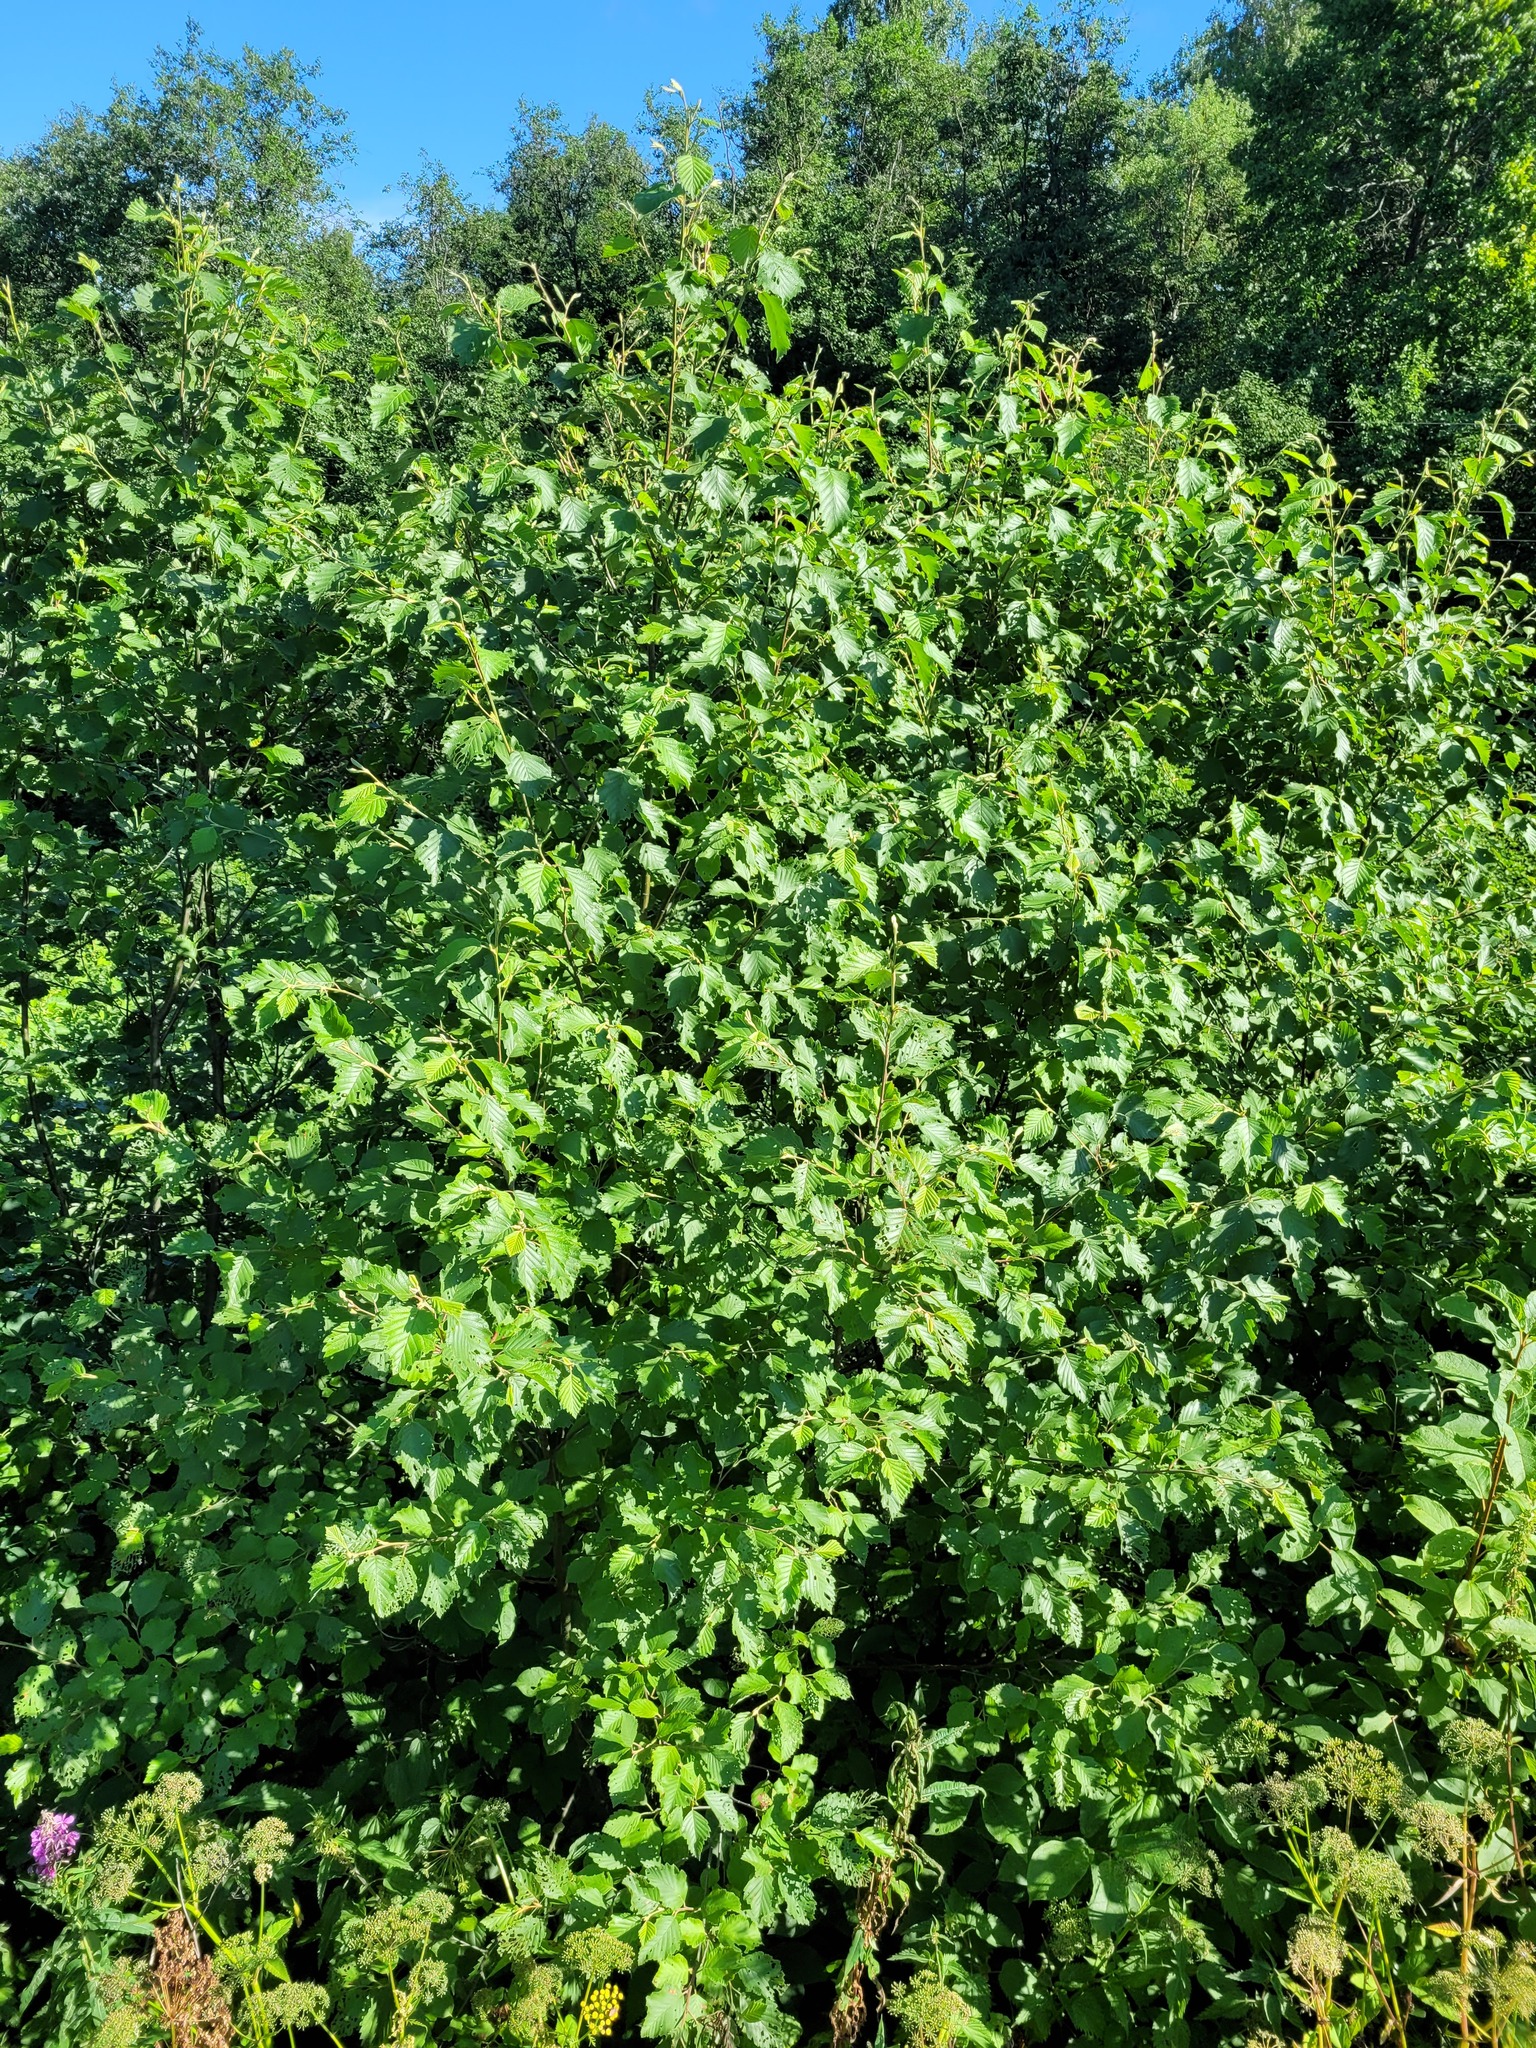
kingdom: Plantae
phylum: Tracheophyta
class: Magnoliopsida
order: Fagales
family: Betulaceae
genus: Alnus
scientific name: Alnus incana
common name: Grey alder
